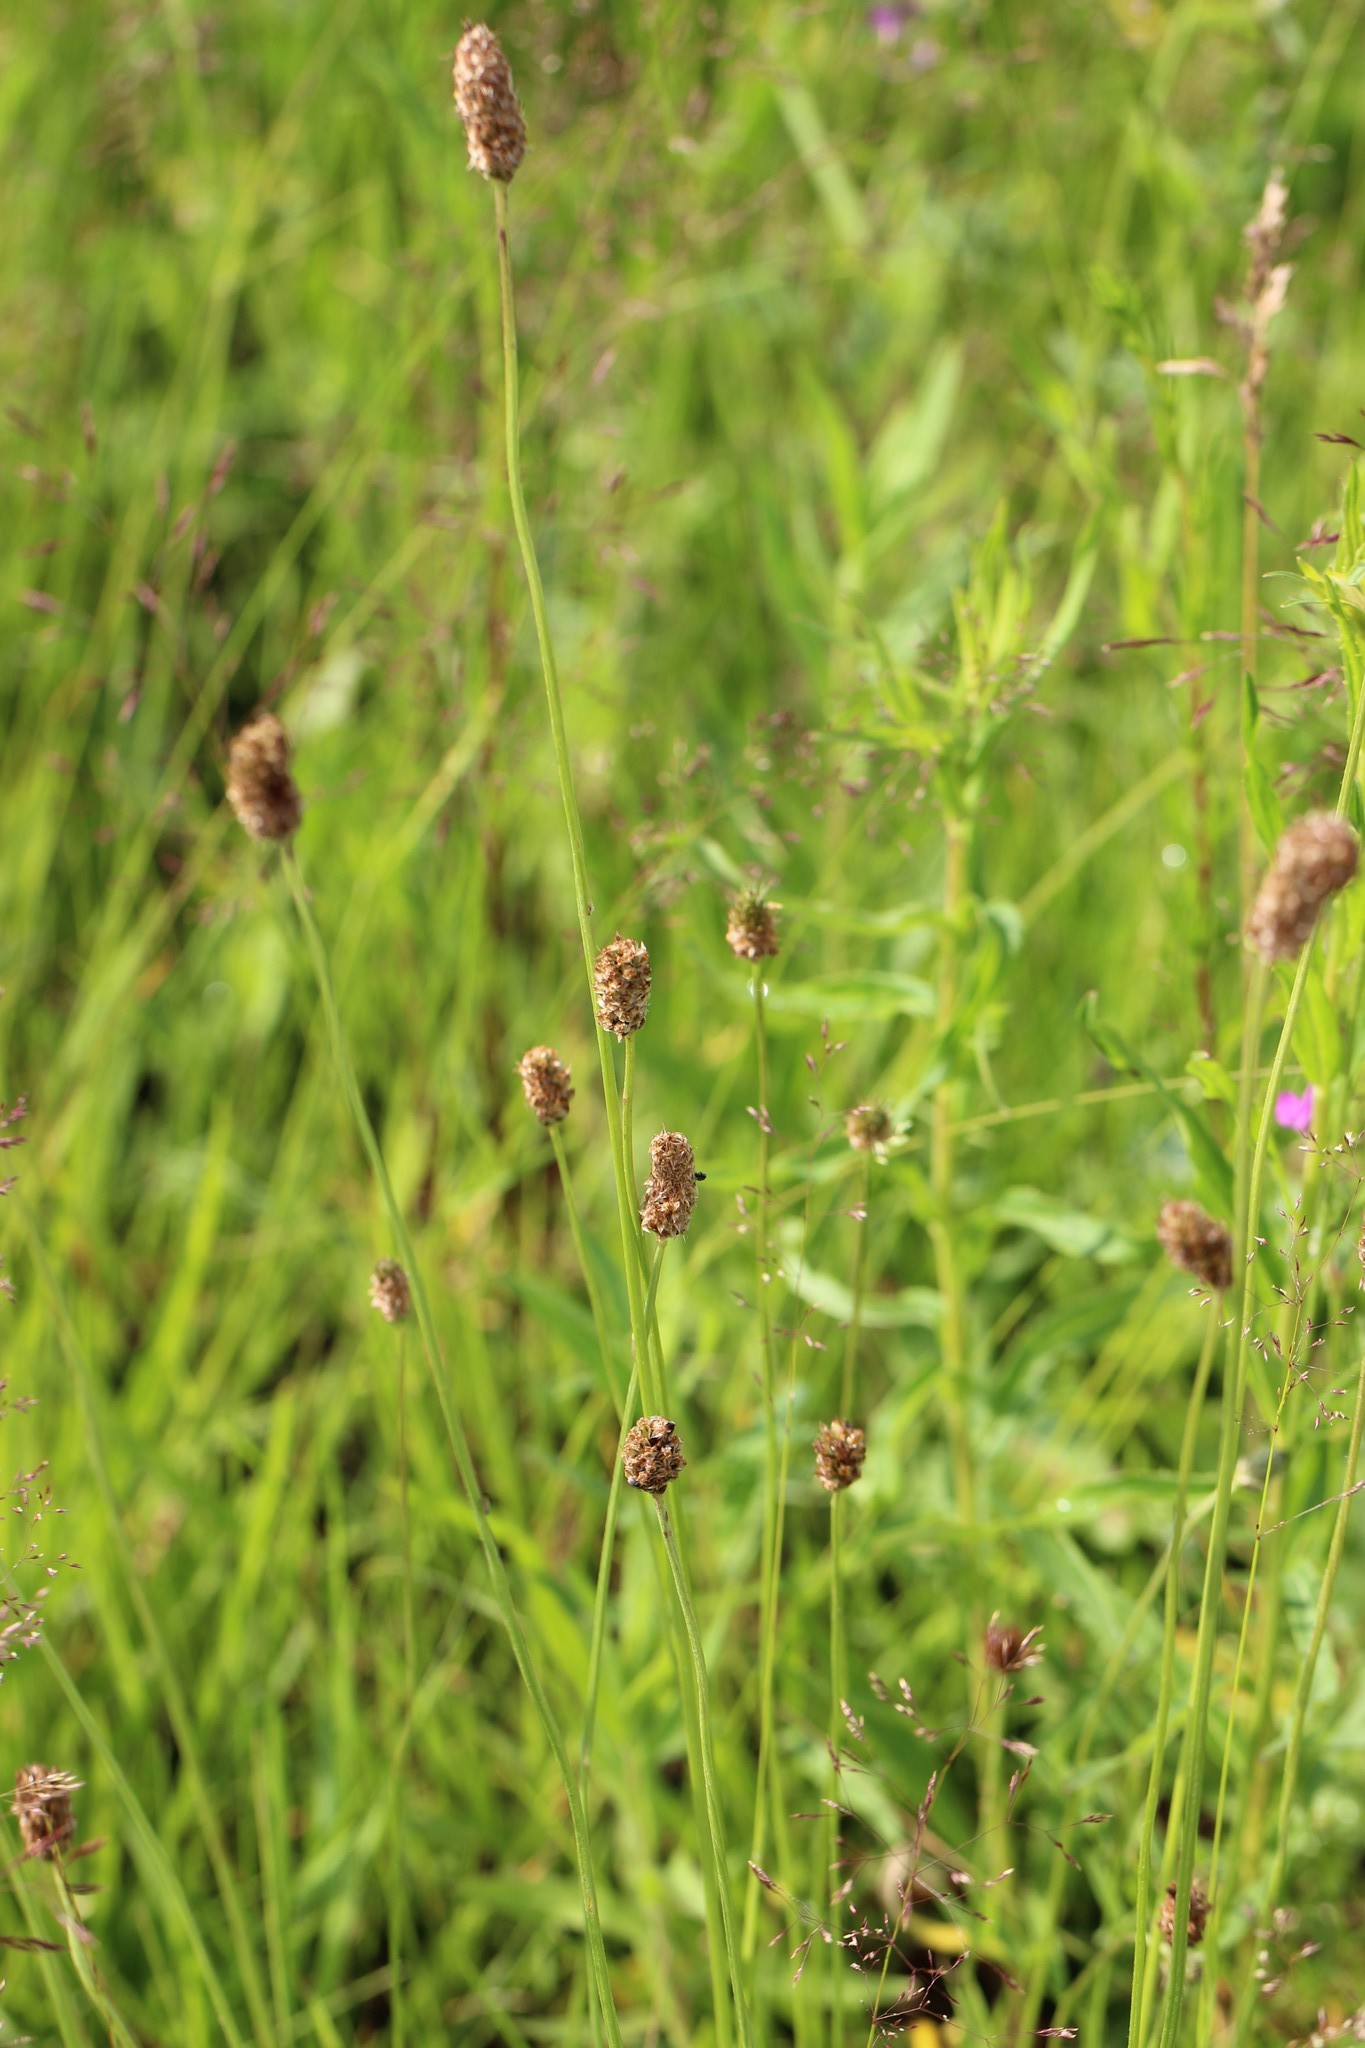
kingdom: Plantae
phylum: Tracheophyta
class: Magnoliopsida
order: Lamiales
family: Plantaginaceae
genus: Plantago
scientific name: Plantago lanceolata
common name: Ribwort plantain
